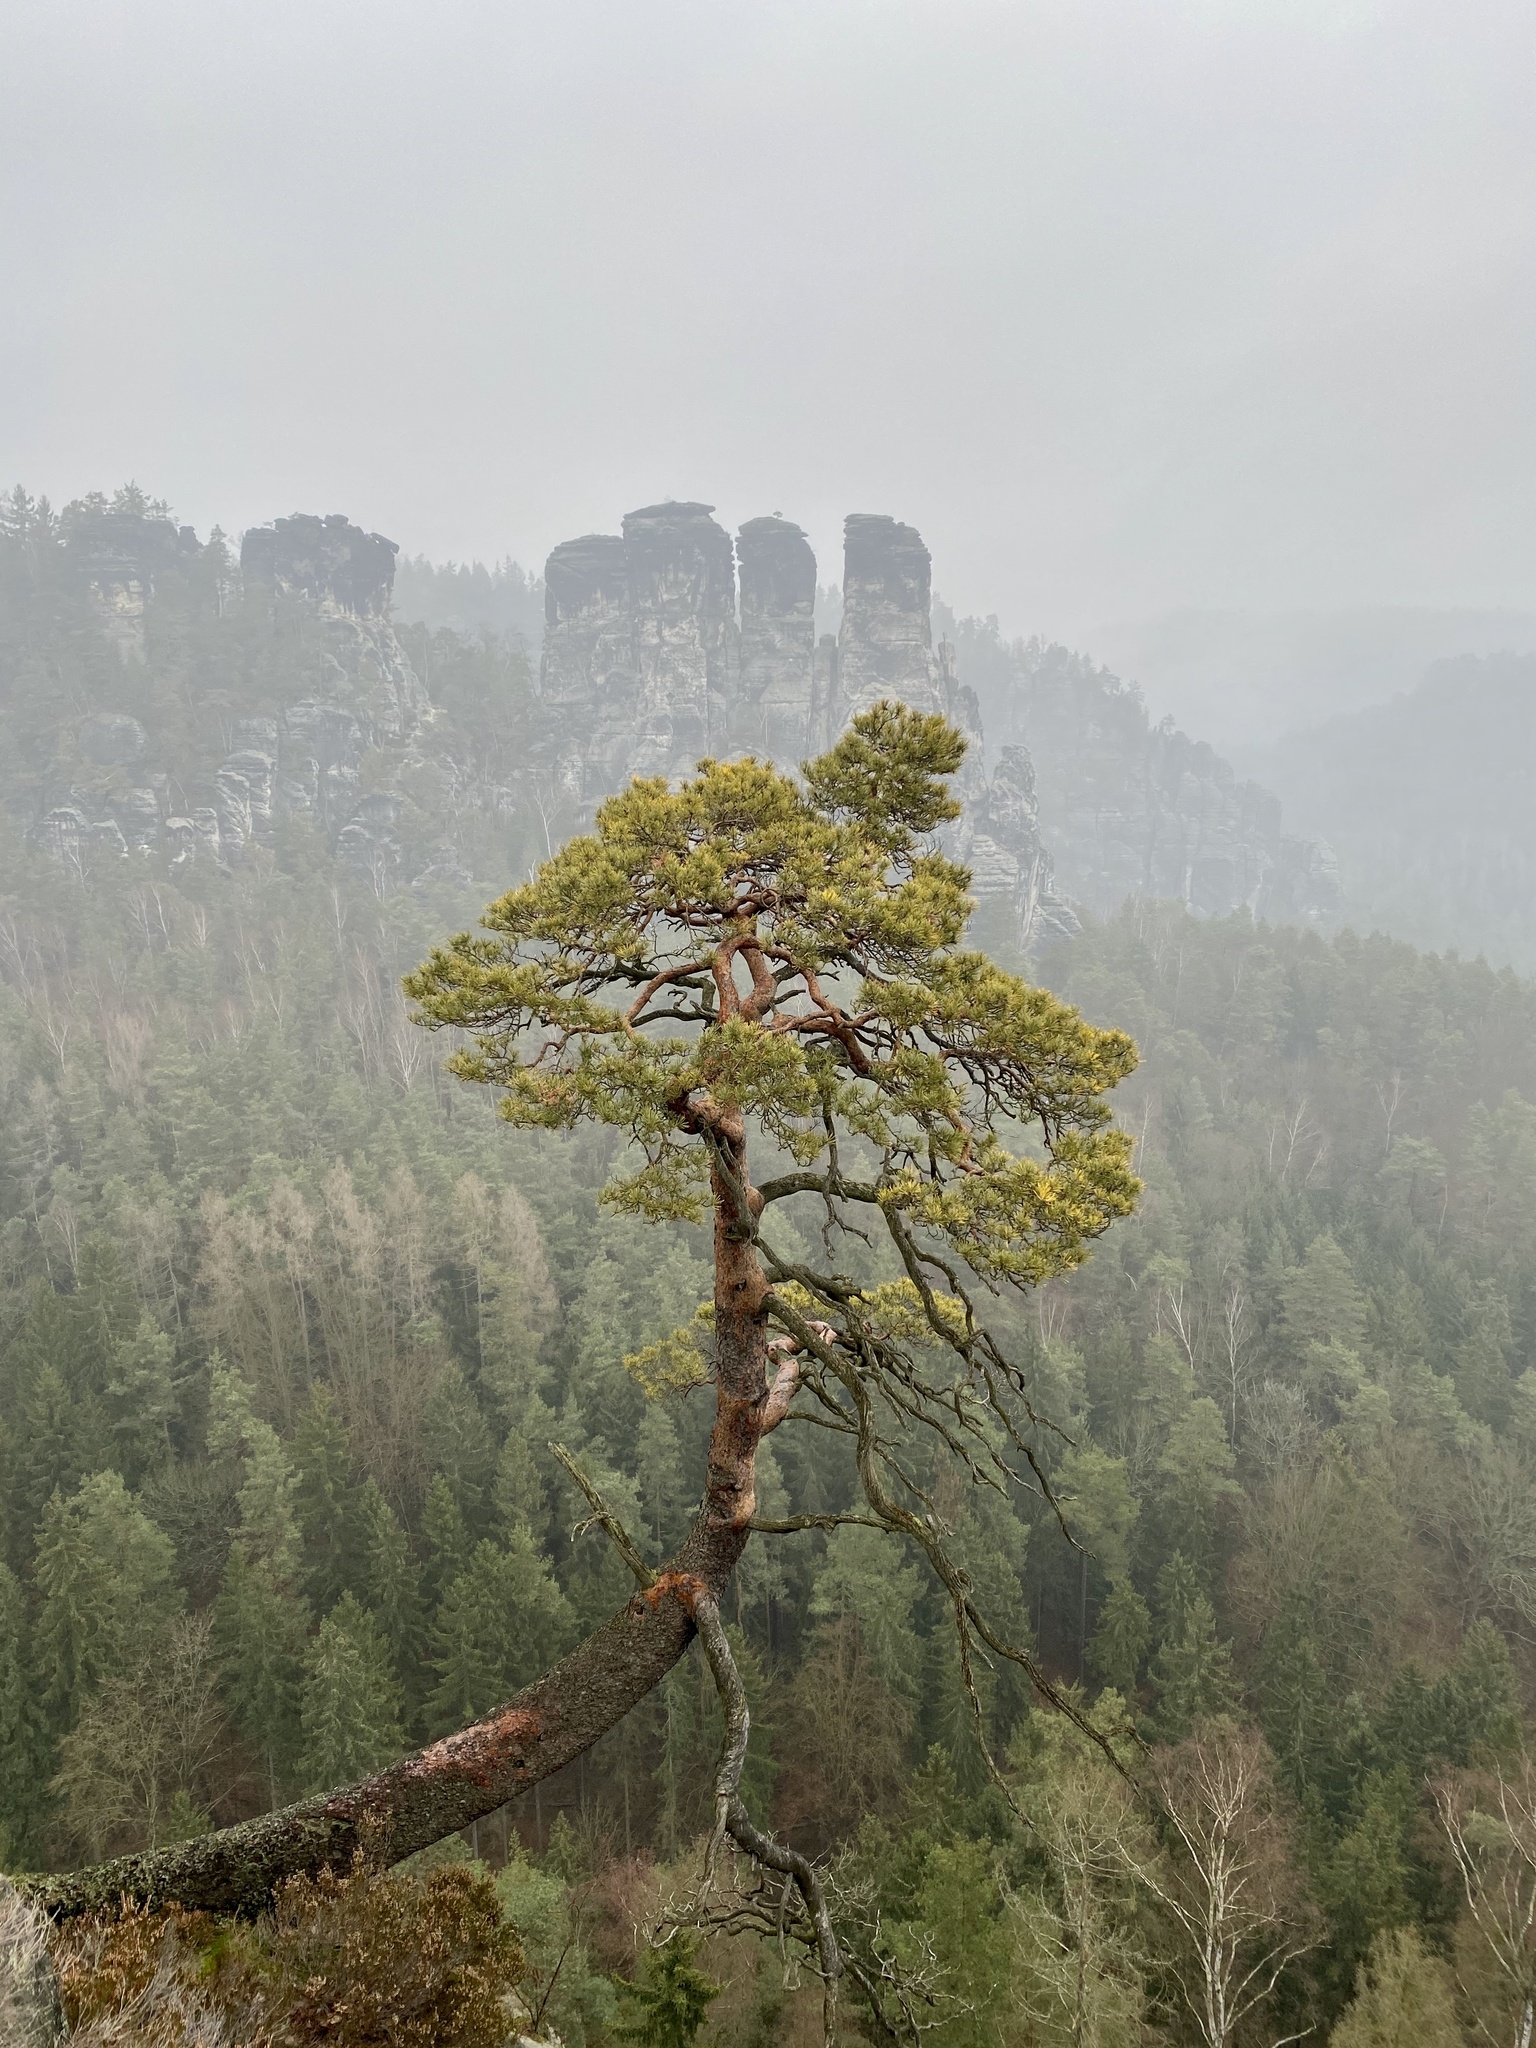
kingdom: Plantae
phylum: Tracheophyta
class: Pinopsida
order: Pinales
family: Pinaceae
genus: Pinus
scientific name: Pinus sylvestris
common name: Scots pine
